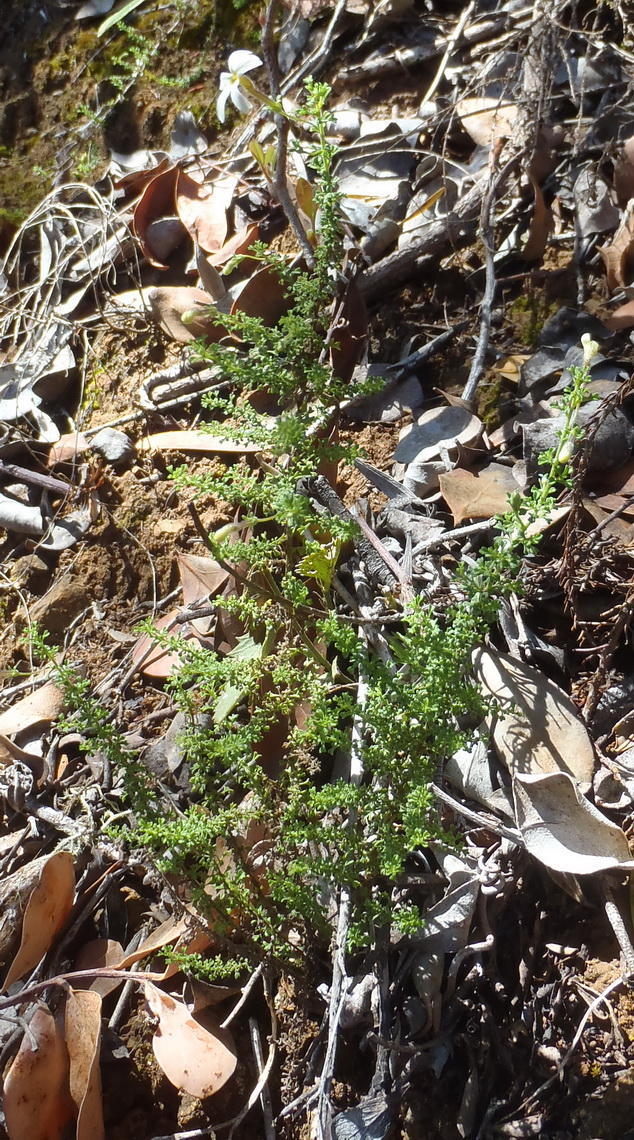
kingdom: Plantae
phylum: Tracheophyta
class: Magnoliopsida
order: Lamiales
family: Scrophulariaceae
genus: Jamesbrittenia
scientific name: Jamesbrittenia argentea
